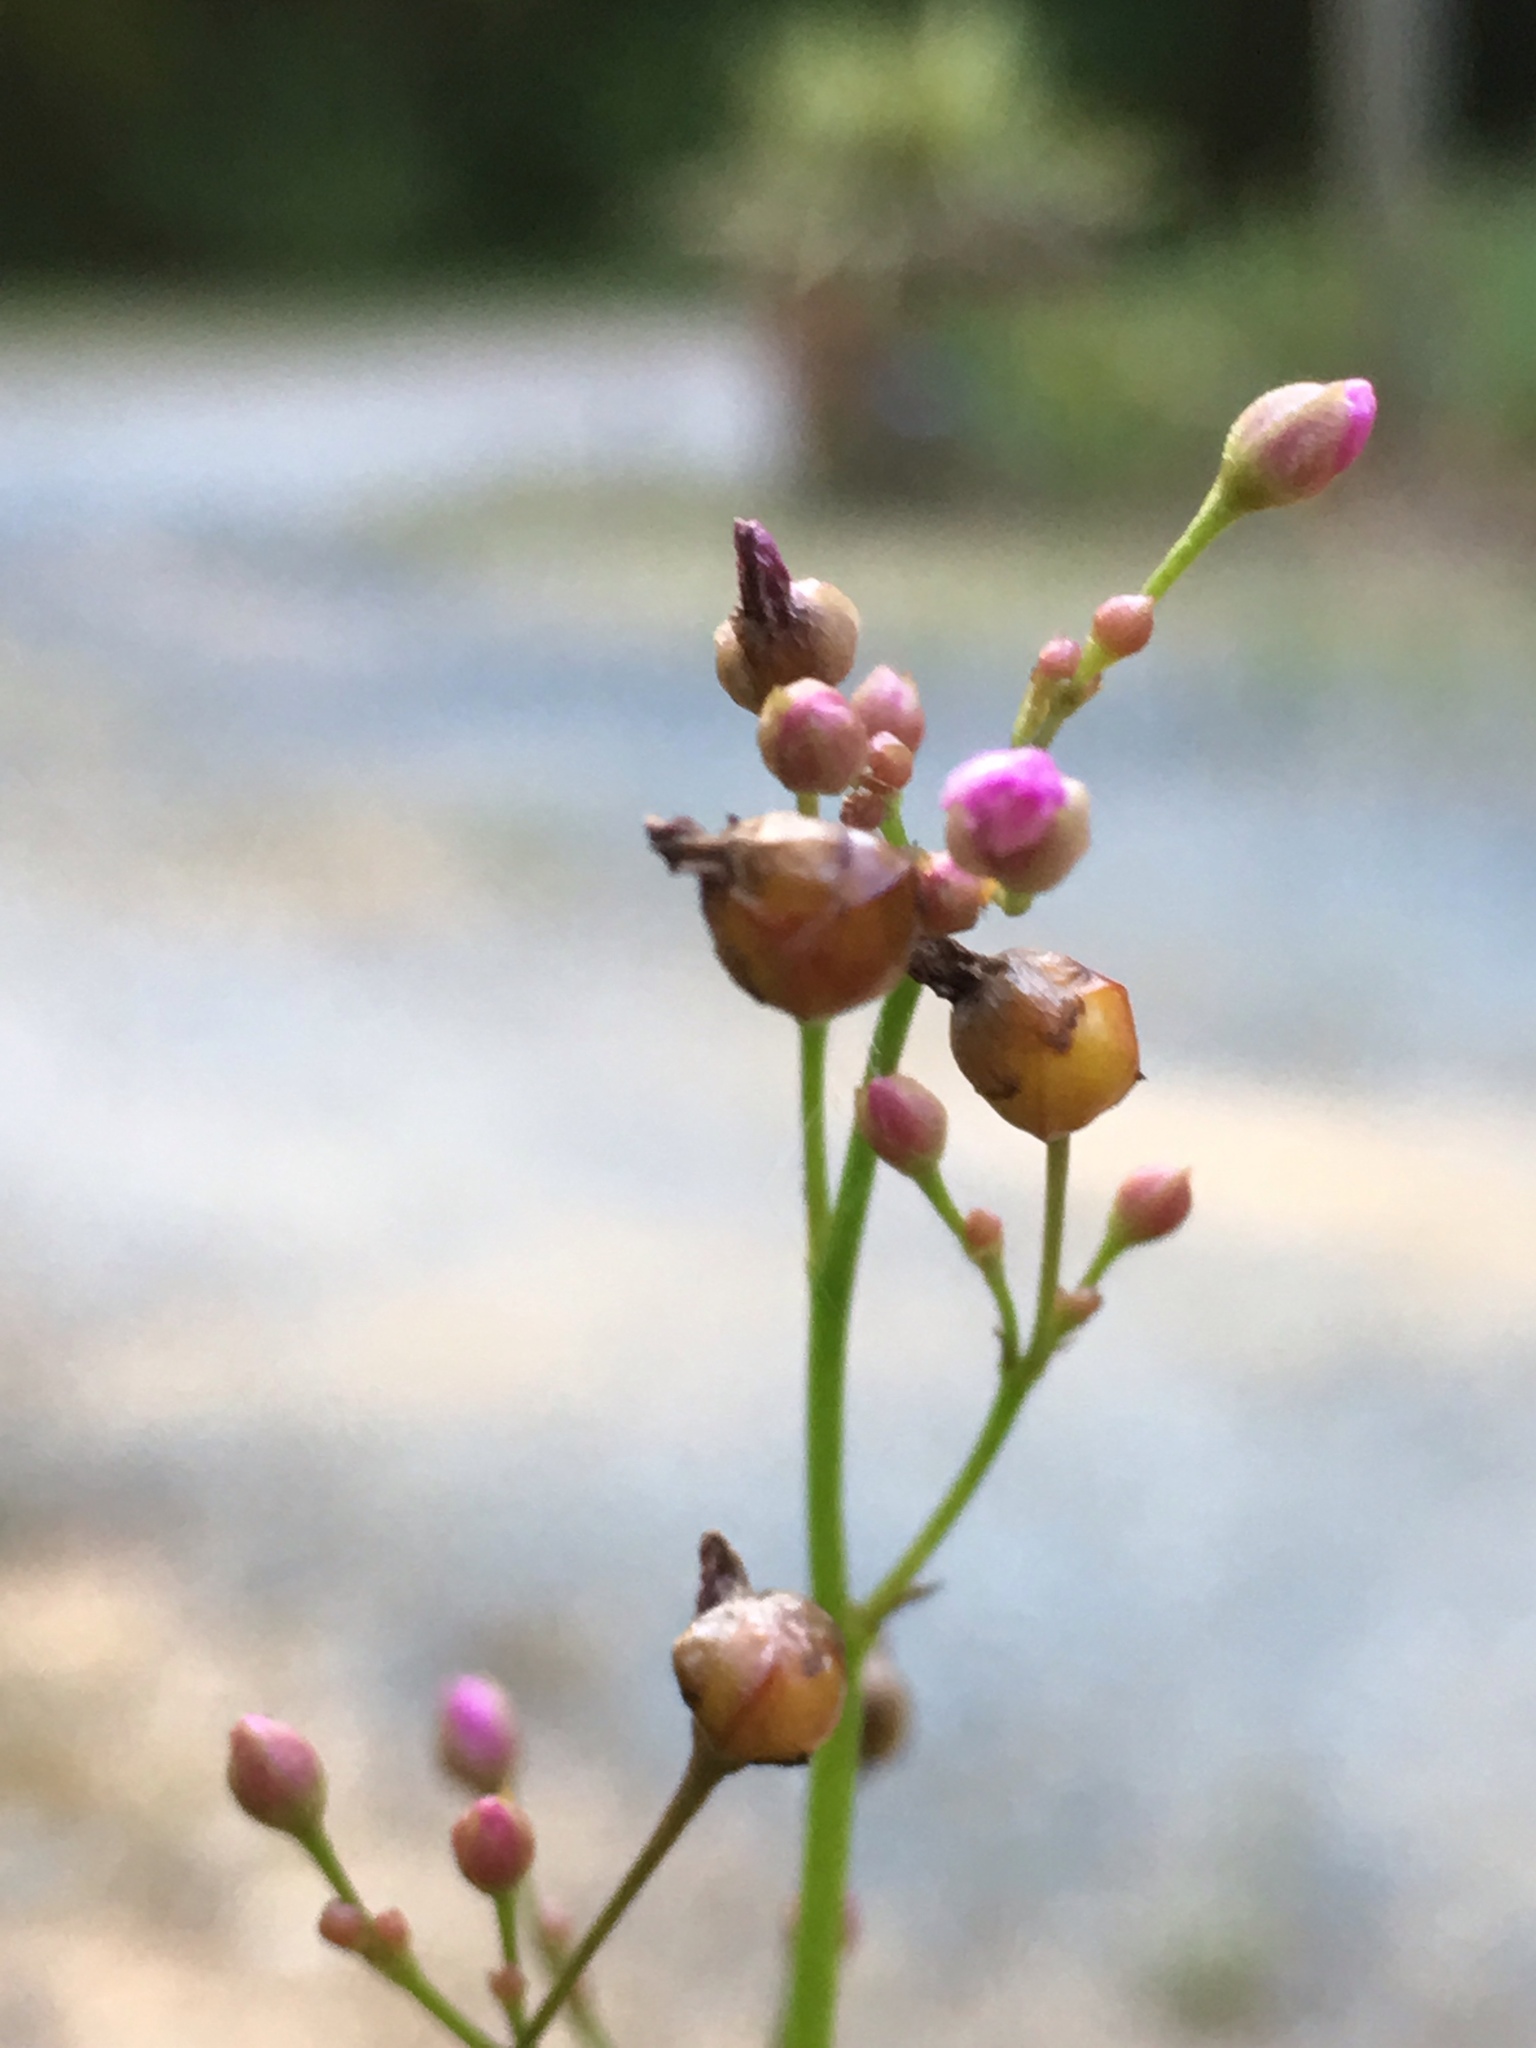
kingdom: Plantae
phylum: Tracheophyta
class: Magnoliopsida
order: Caryophyllales
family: Talinaceae
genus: Talinum
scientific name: Talinum paniculatum
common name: Jewels of opar
